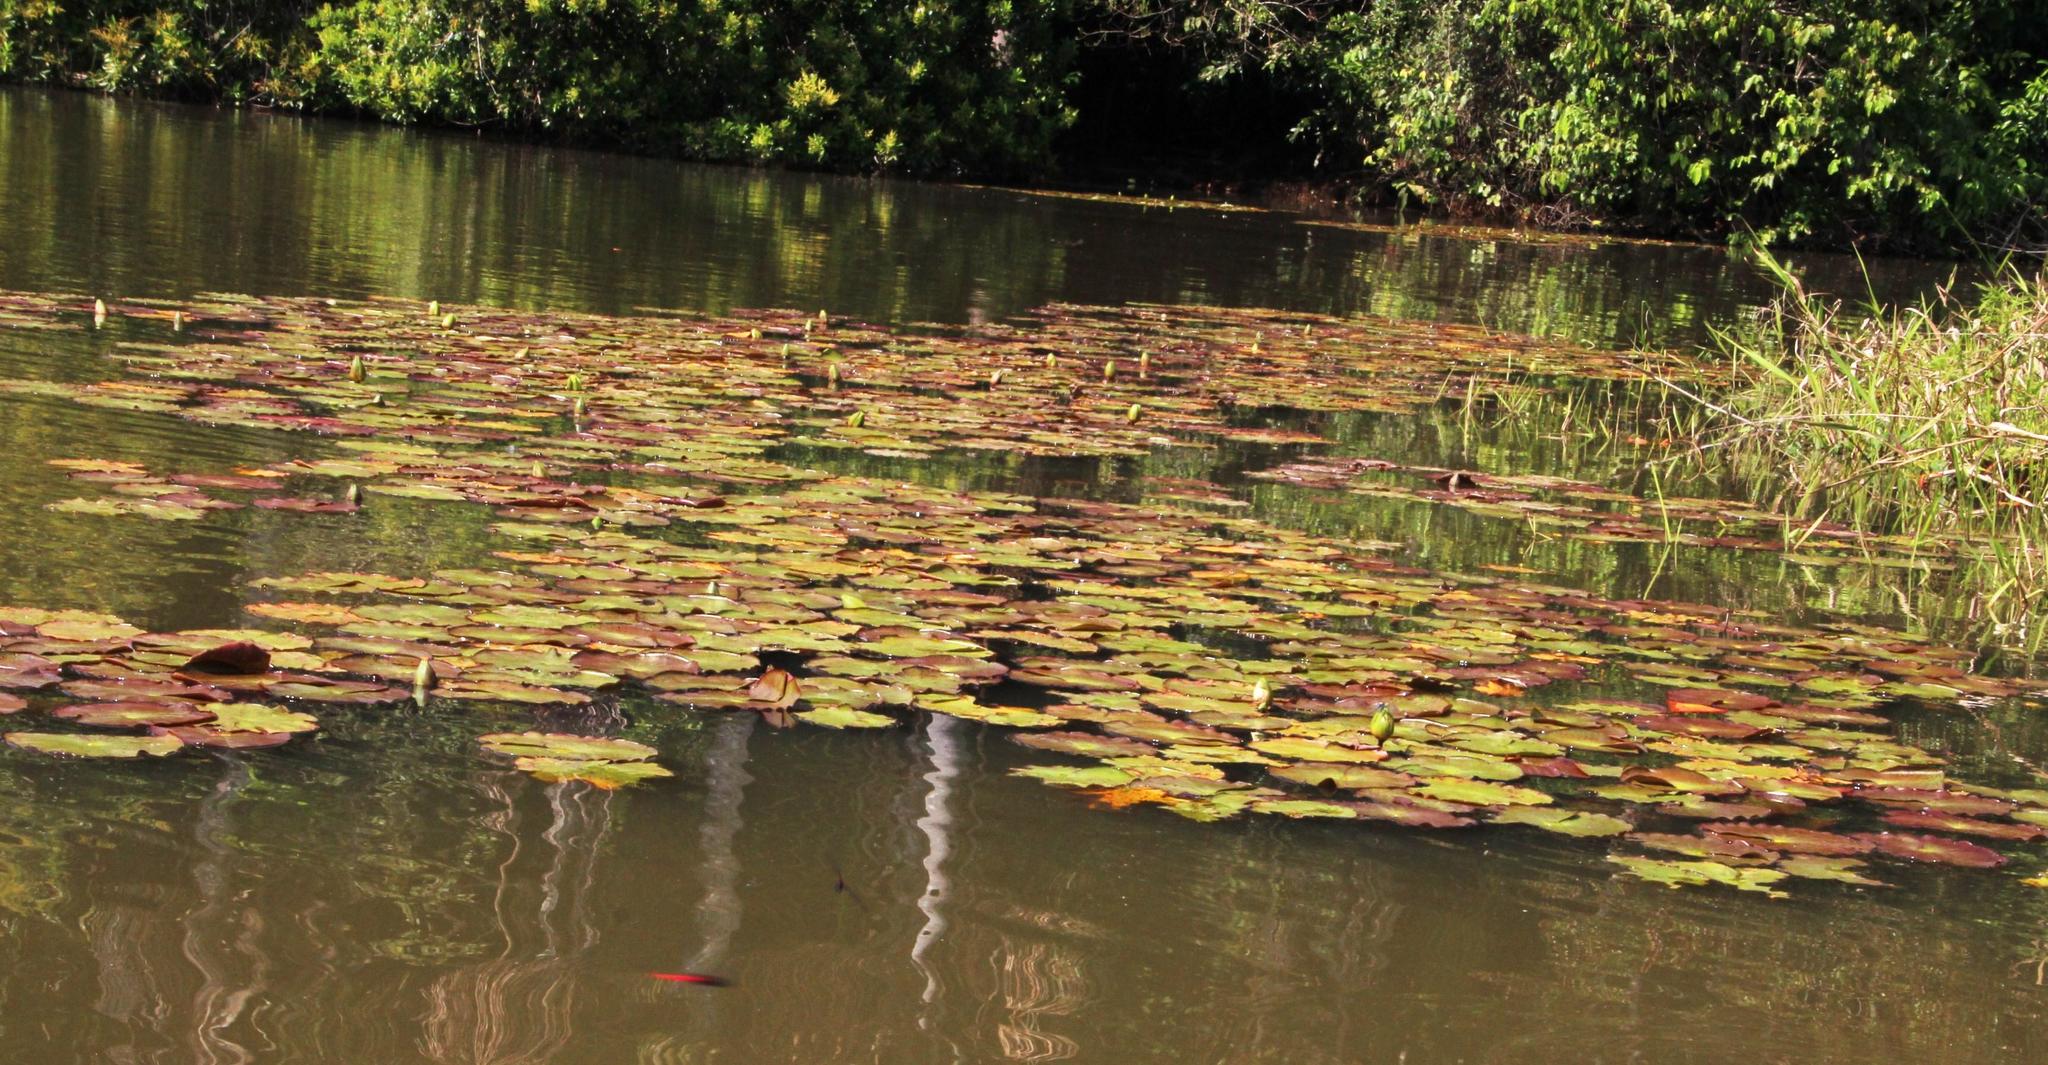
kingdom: Plantae
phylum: Tracheophyta
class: Magnoliopsida
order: Nymphaeales
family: Nymphaeaceae
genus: Nymphaea
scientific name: Nymphaea amazonum
